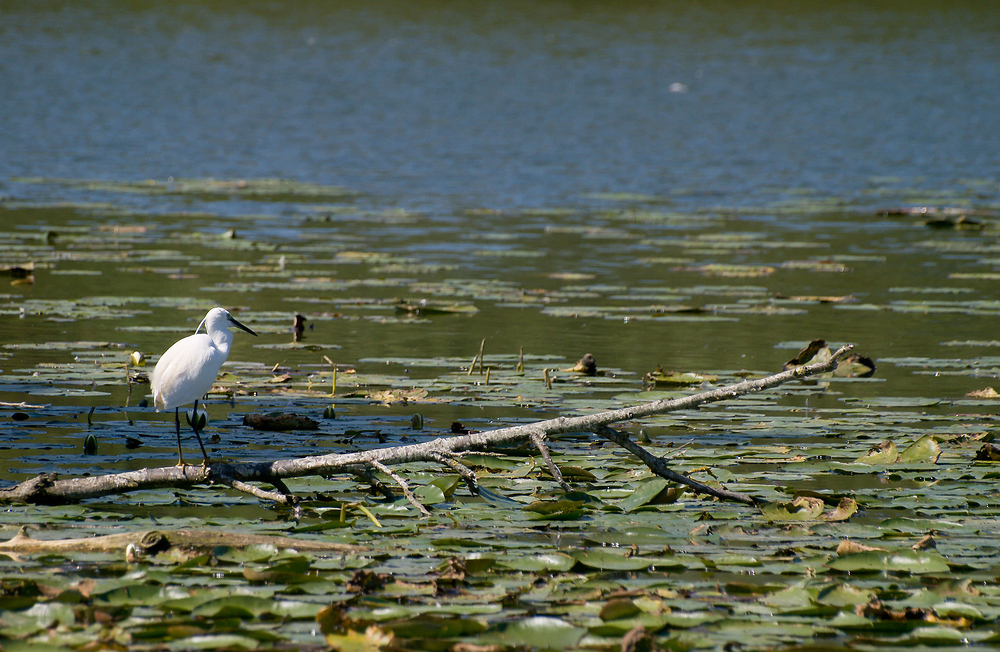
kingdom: Animalia
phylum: Chordata
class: Aves
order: Pelecaniformes
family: Ardeidae
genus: Egretta
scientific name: Egretta garzetta
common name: Little egret
